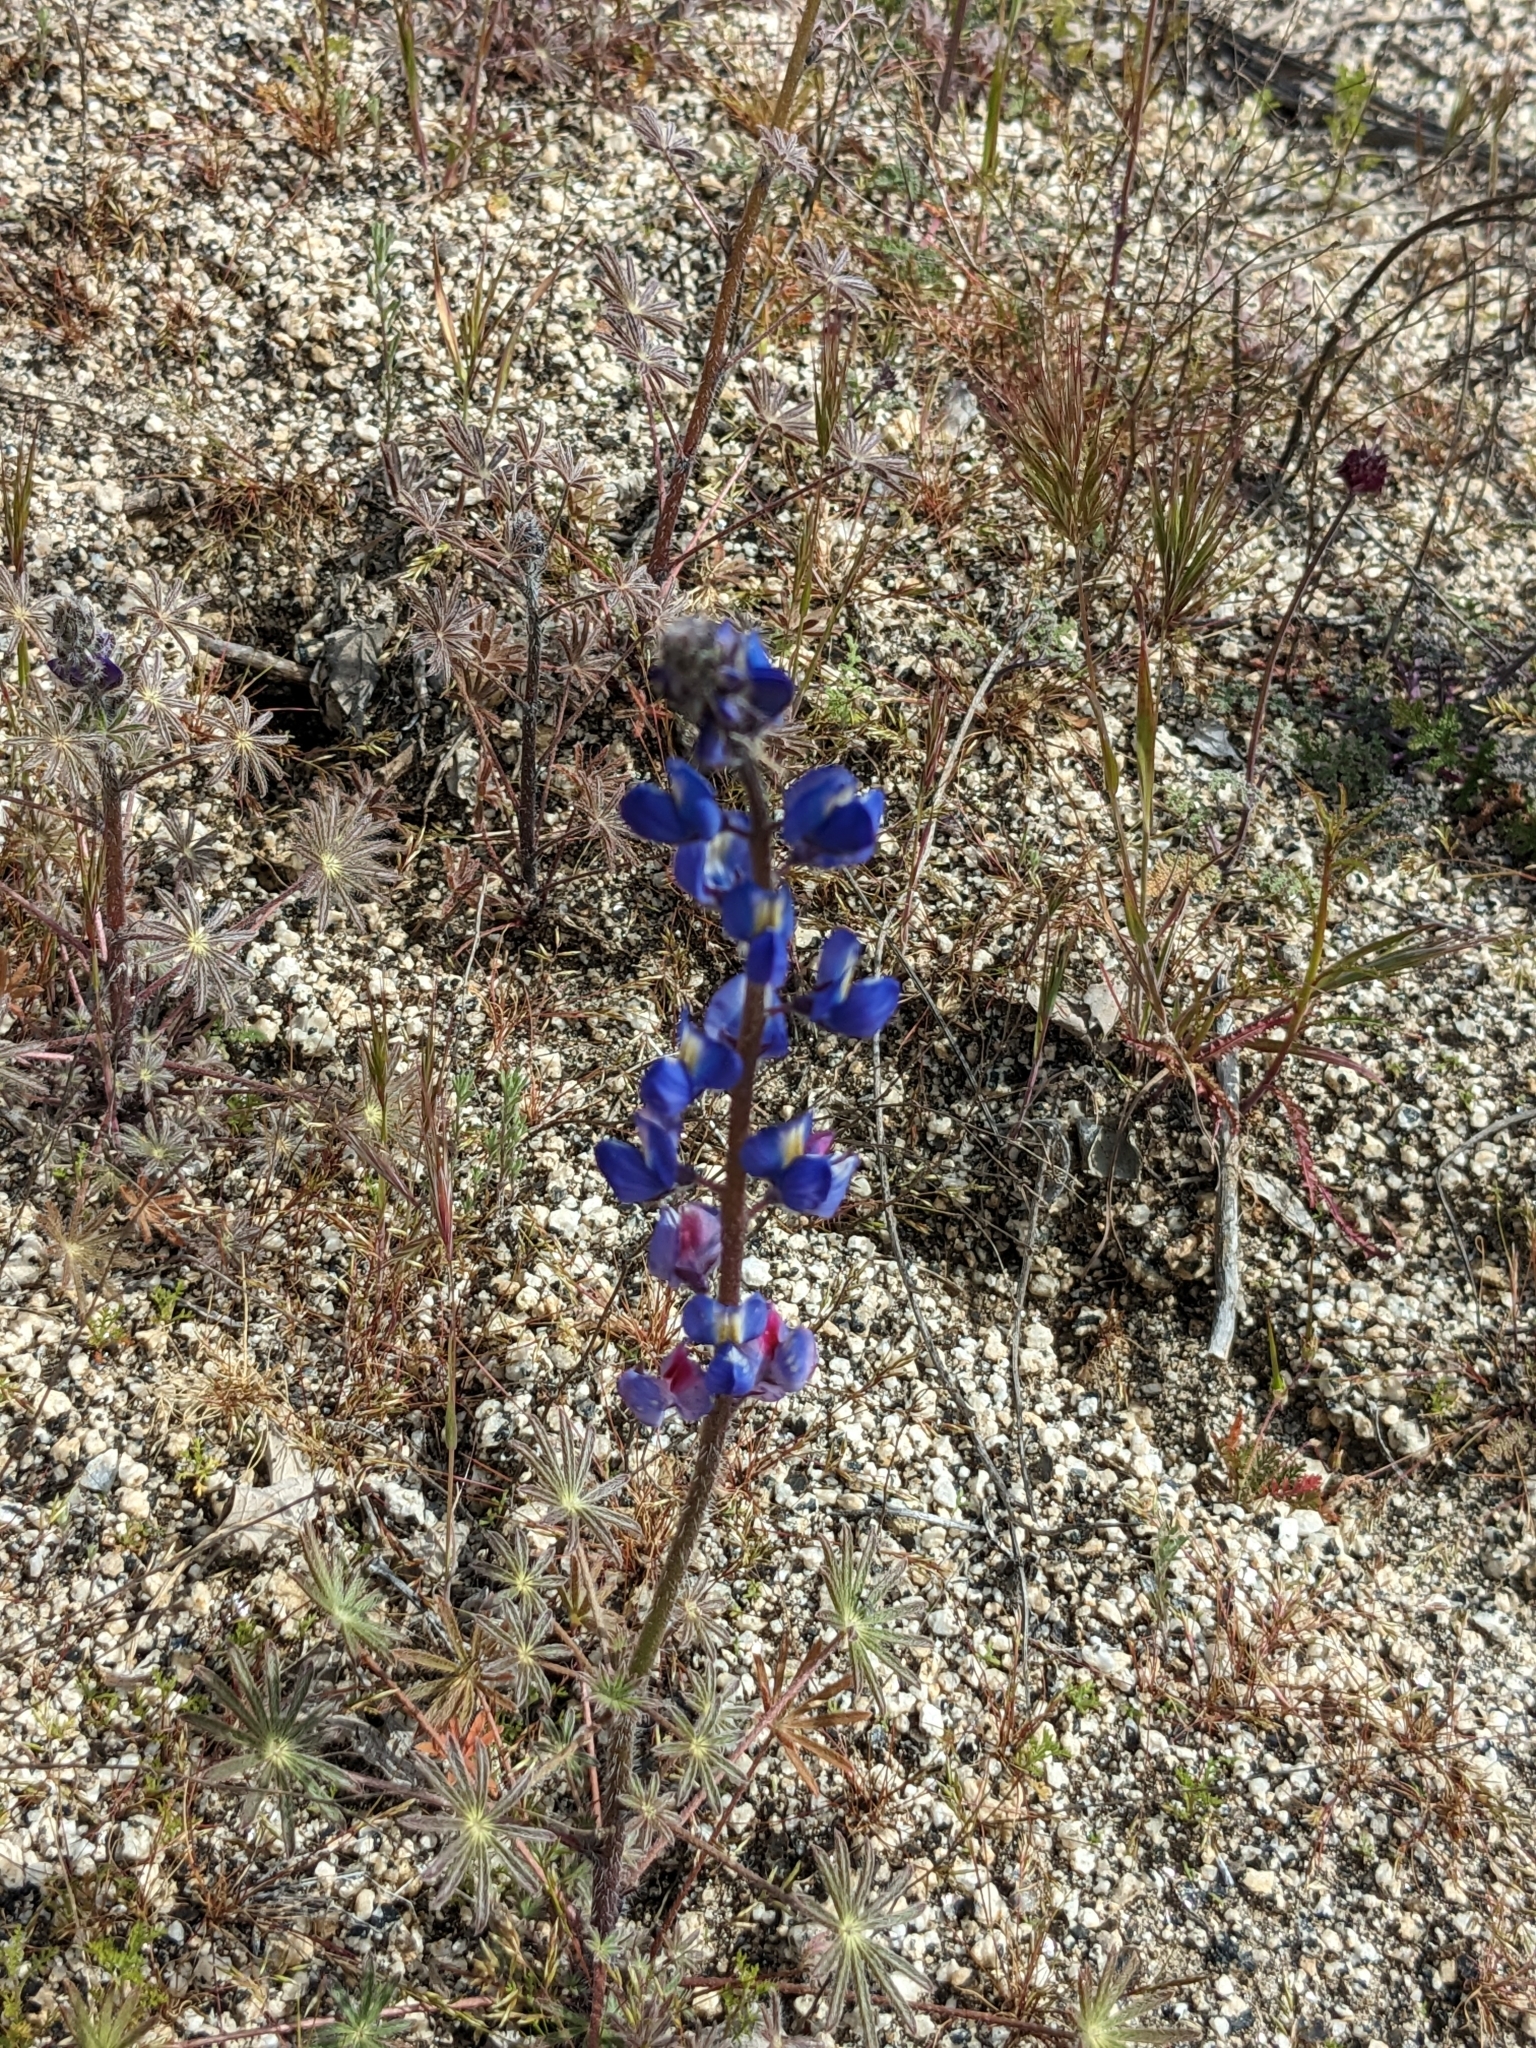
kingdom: Plantae
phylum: Tracheophyta
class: Magnoliopsida
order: Fabales
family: Fabaceae
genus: Lupinus
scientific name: Lupinus sparsiflorus
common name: Coulter's lupine
